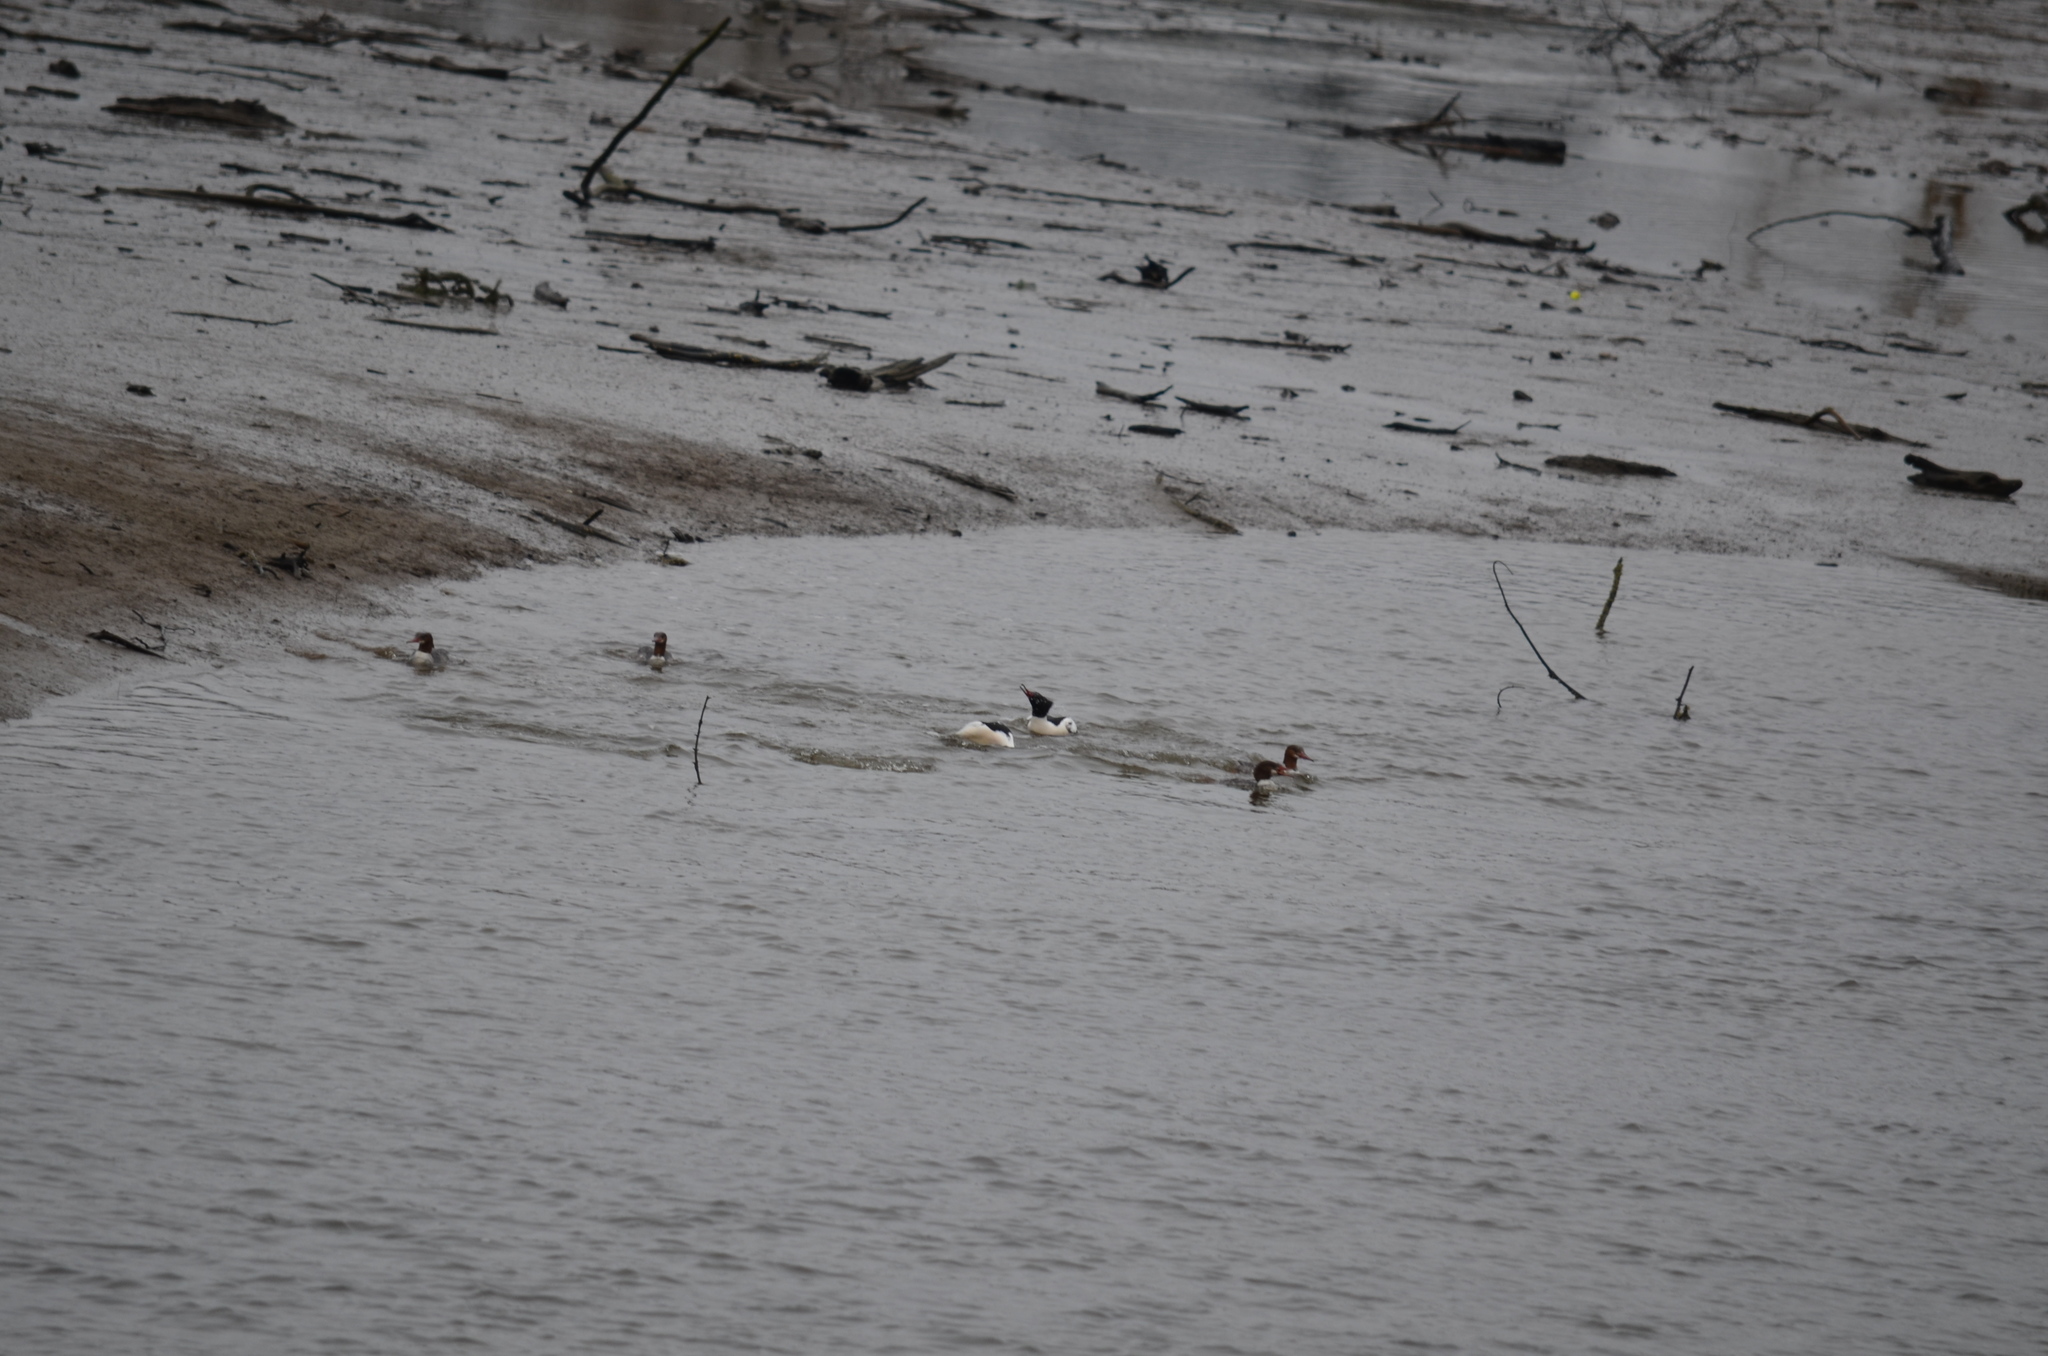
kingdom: Animalia
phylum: Chordata
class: Aves
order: Anseriformes
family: Anatidae
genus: Mergus
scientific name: Mergus merganser
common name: Common merganser
